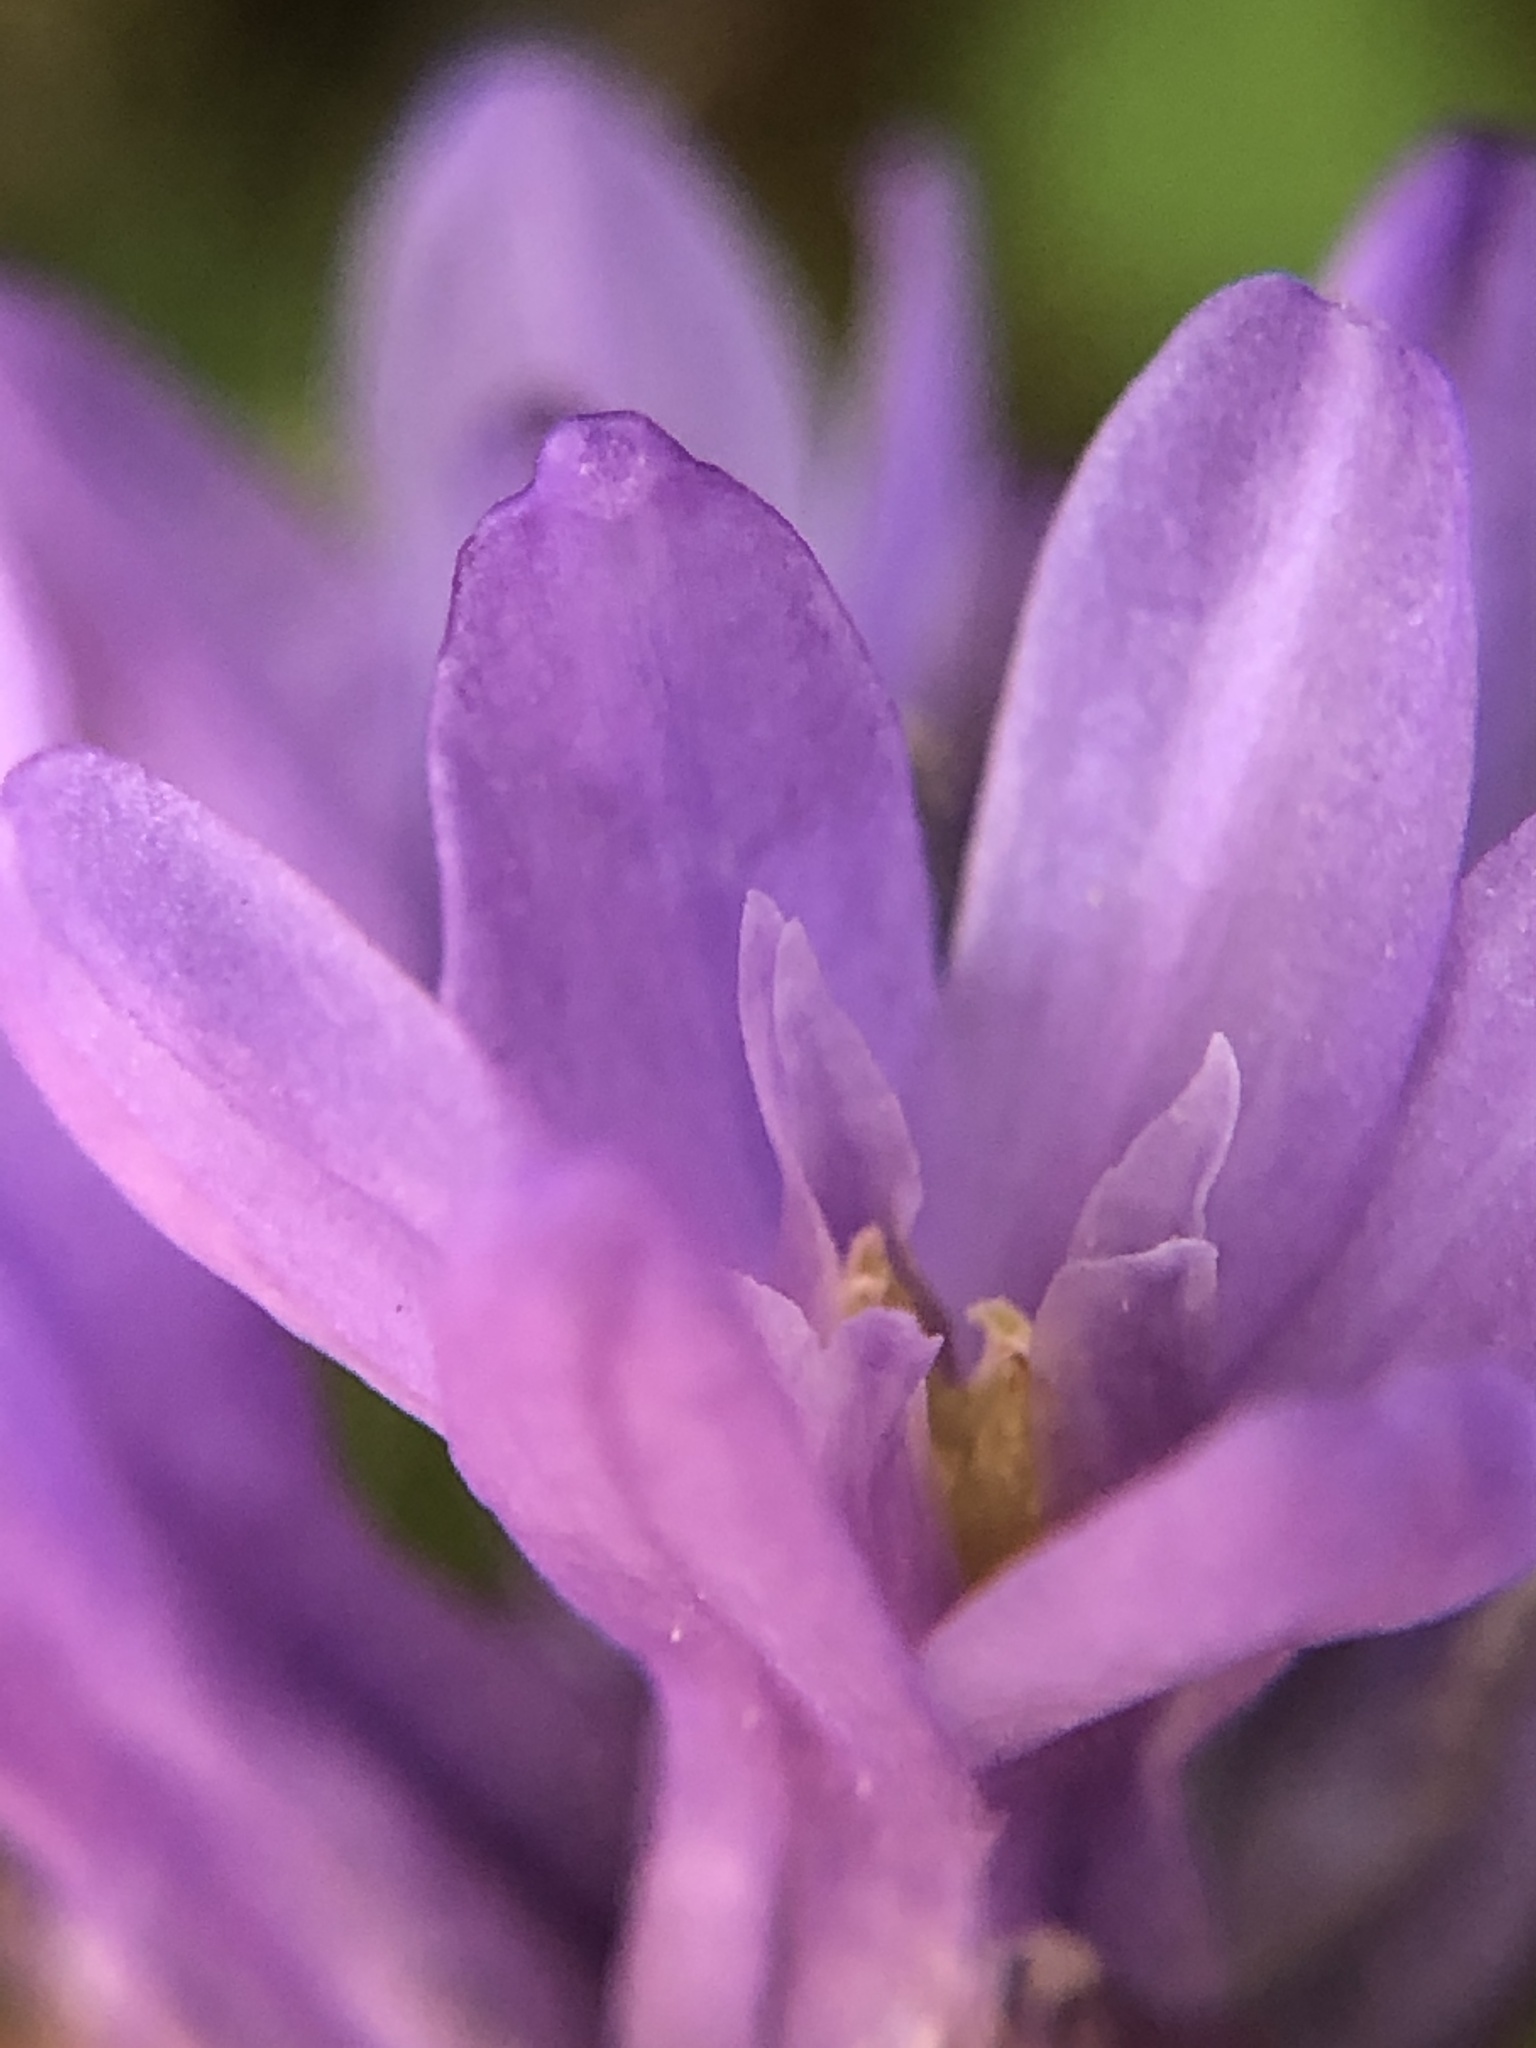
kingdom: Plantae
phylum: Tracheophyta
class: Liliopsida
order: Asparagales
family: Asparagaceae
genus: Dichelostemma
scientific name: Dichelostemma congestum
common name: Fork-tooth ookow
